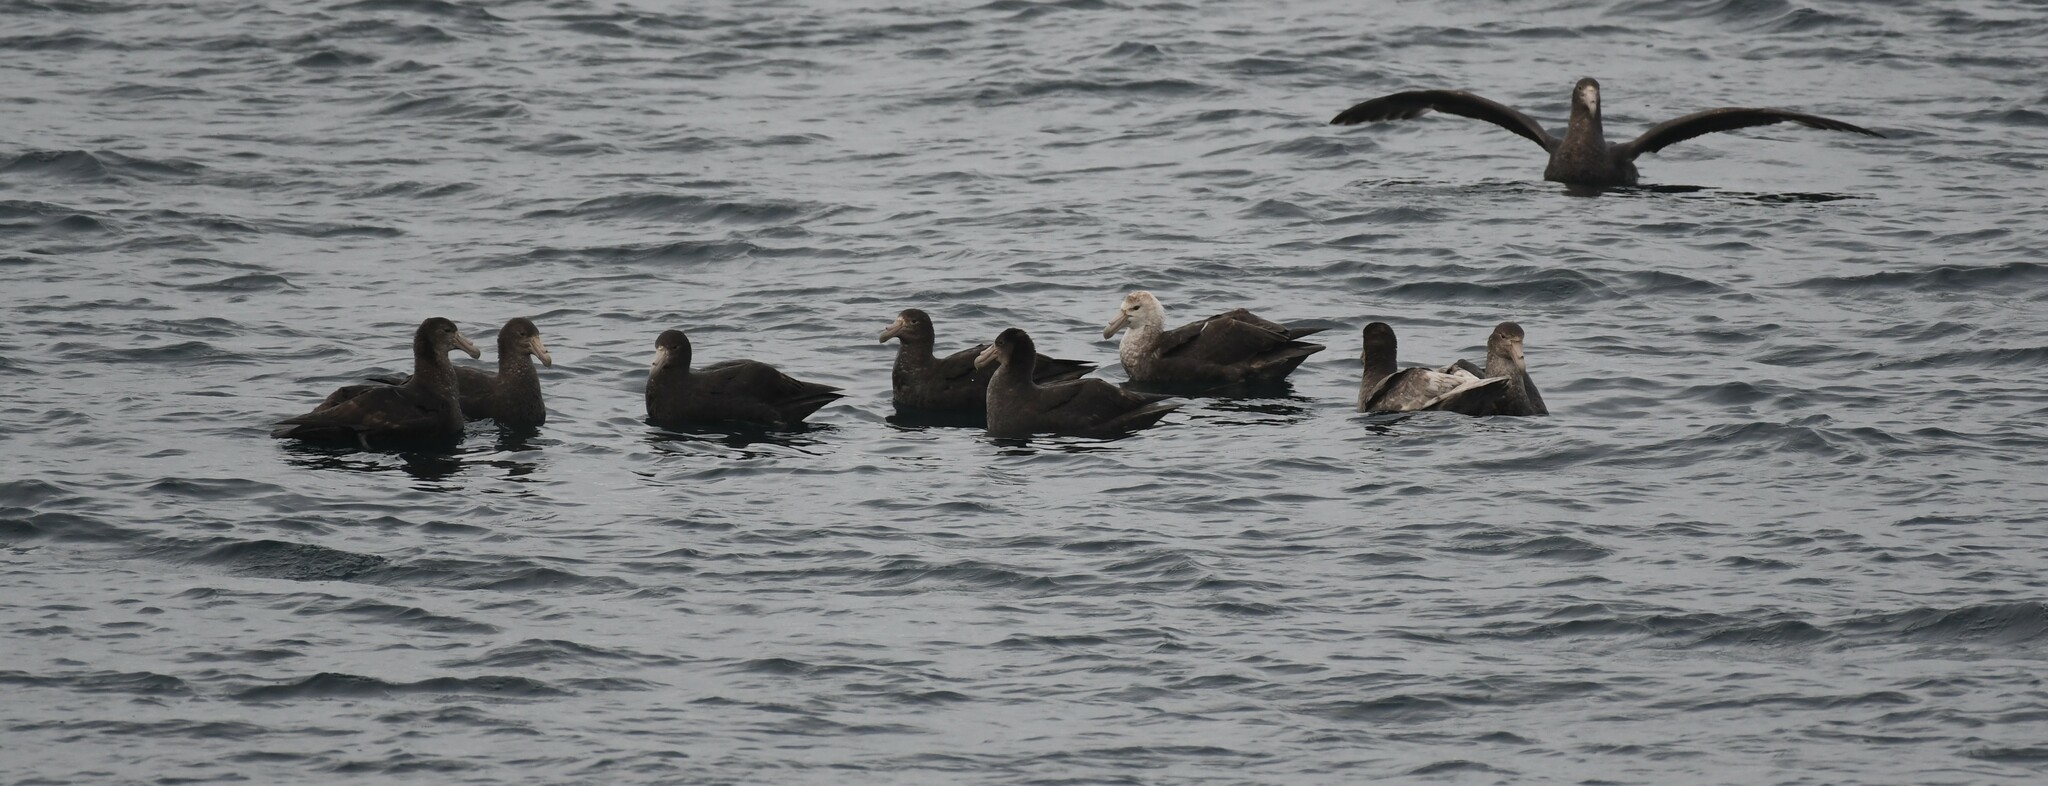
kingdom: Animalia
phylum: Chordata
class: Aves
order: Procellariiformes
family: Procellariidae
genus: Macronectes
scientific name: Macronectes giganteus
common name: Southern giant petrel
